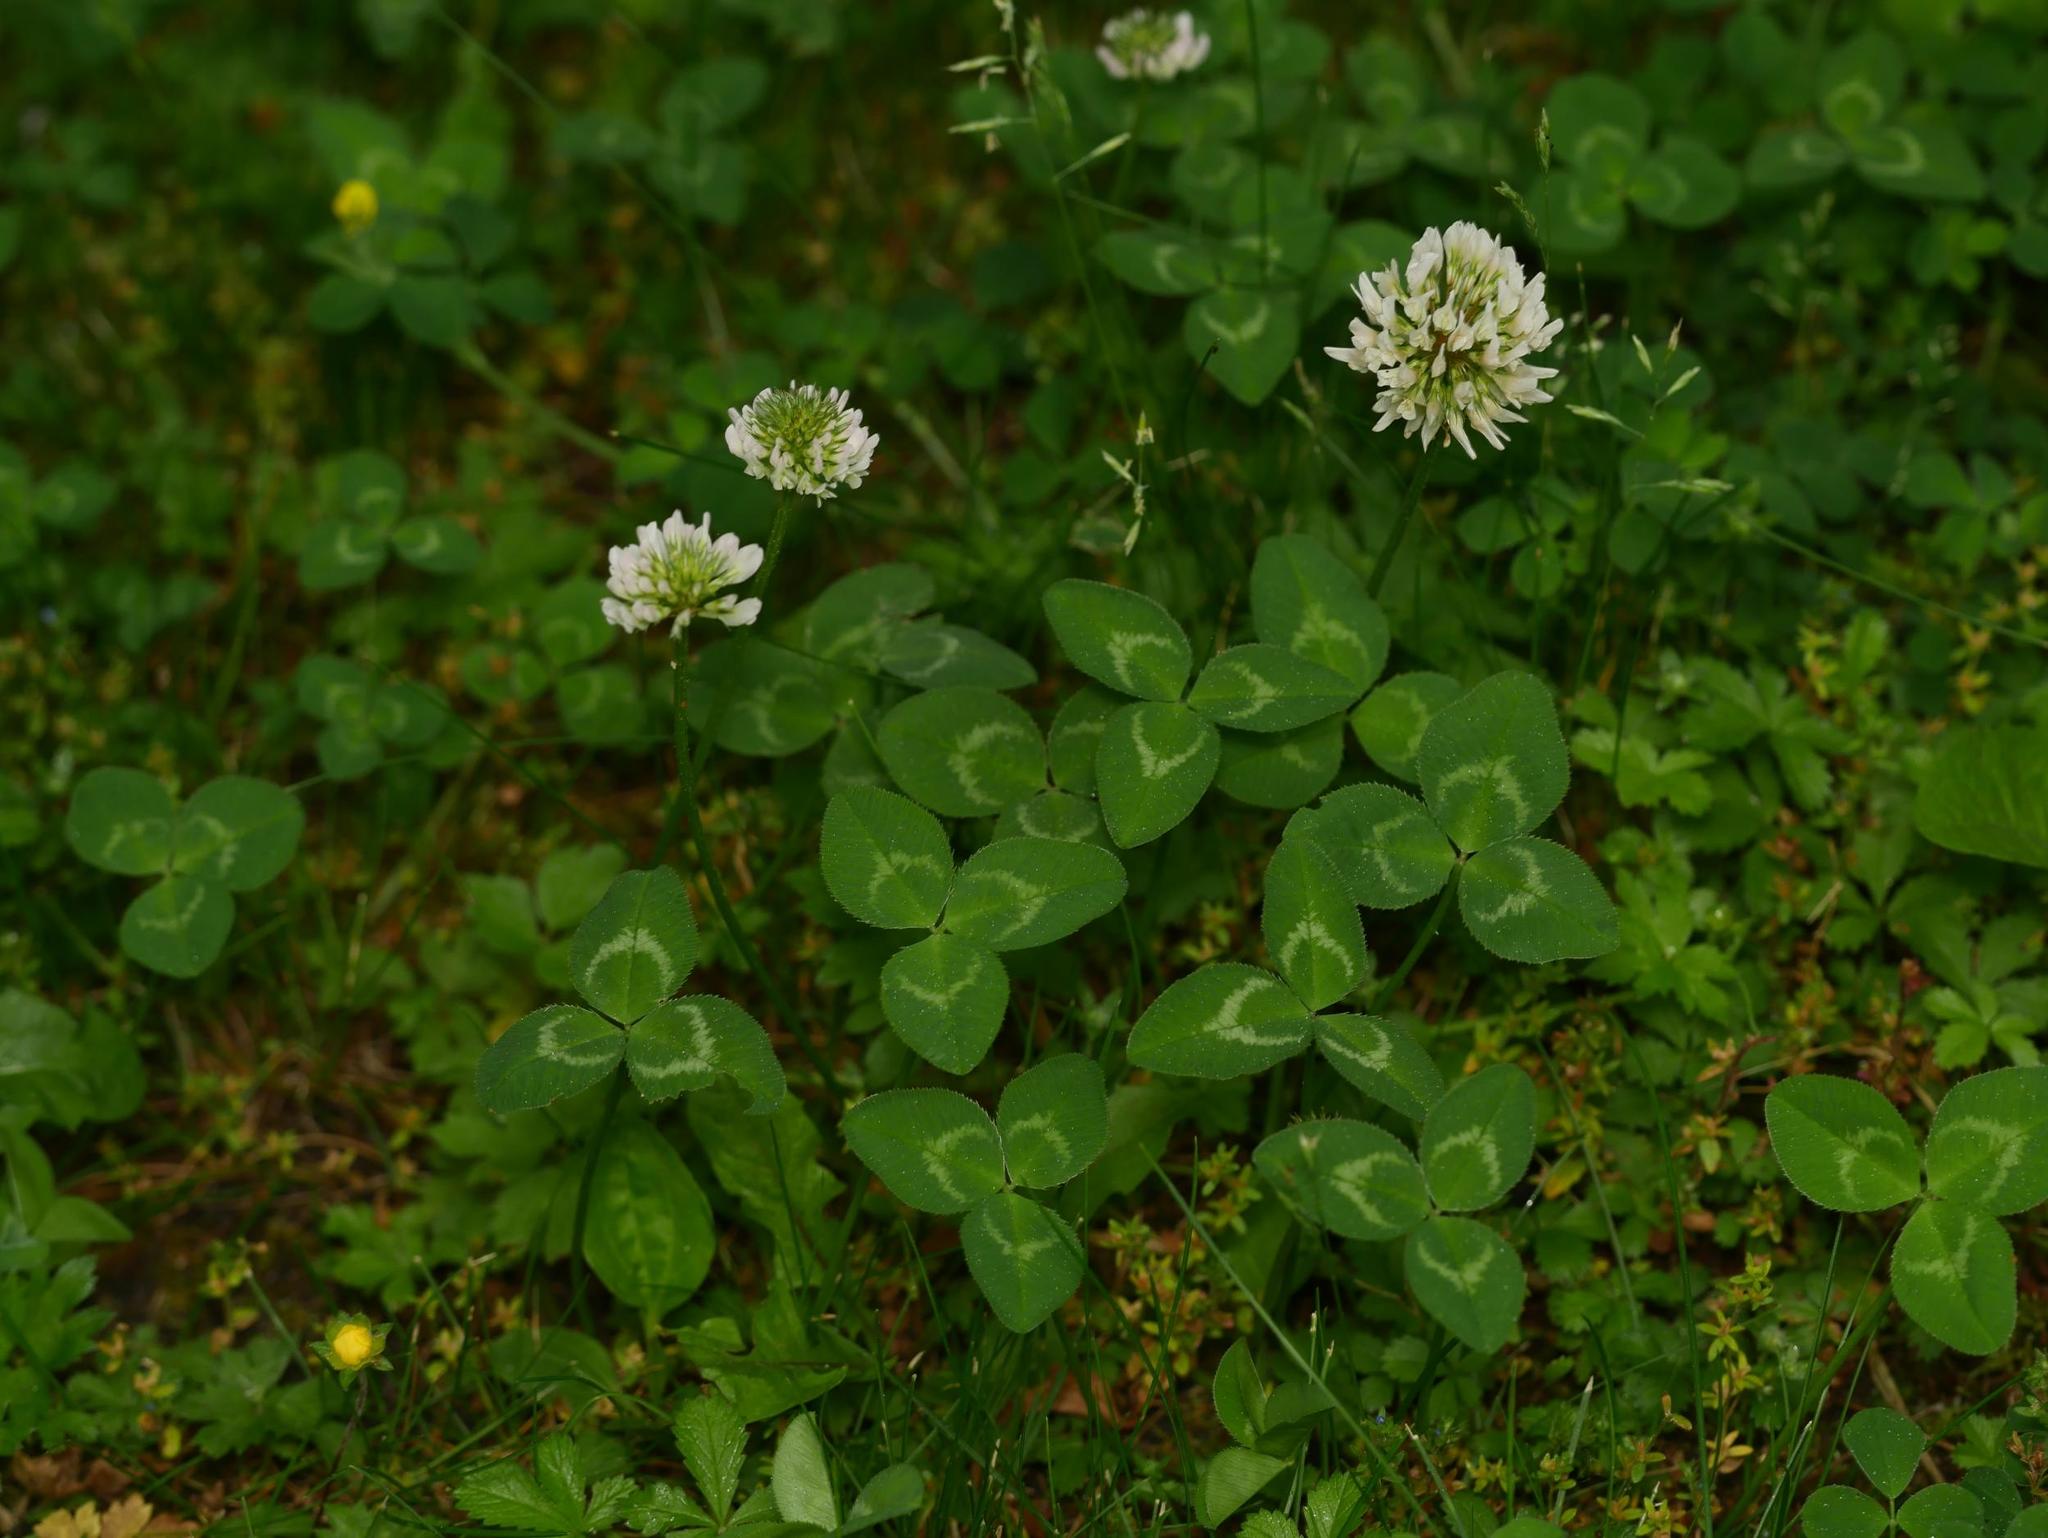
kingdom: Plantae
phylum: Tracheophyta
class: Magnoliopsida
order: Fabales
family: Fabaceae
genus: Trifolium
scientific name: Trifolium repens
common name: White clover
